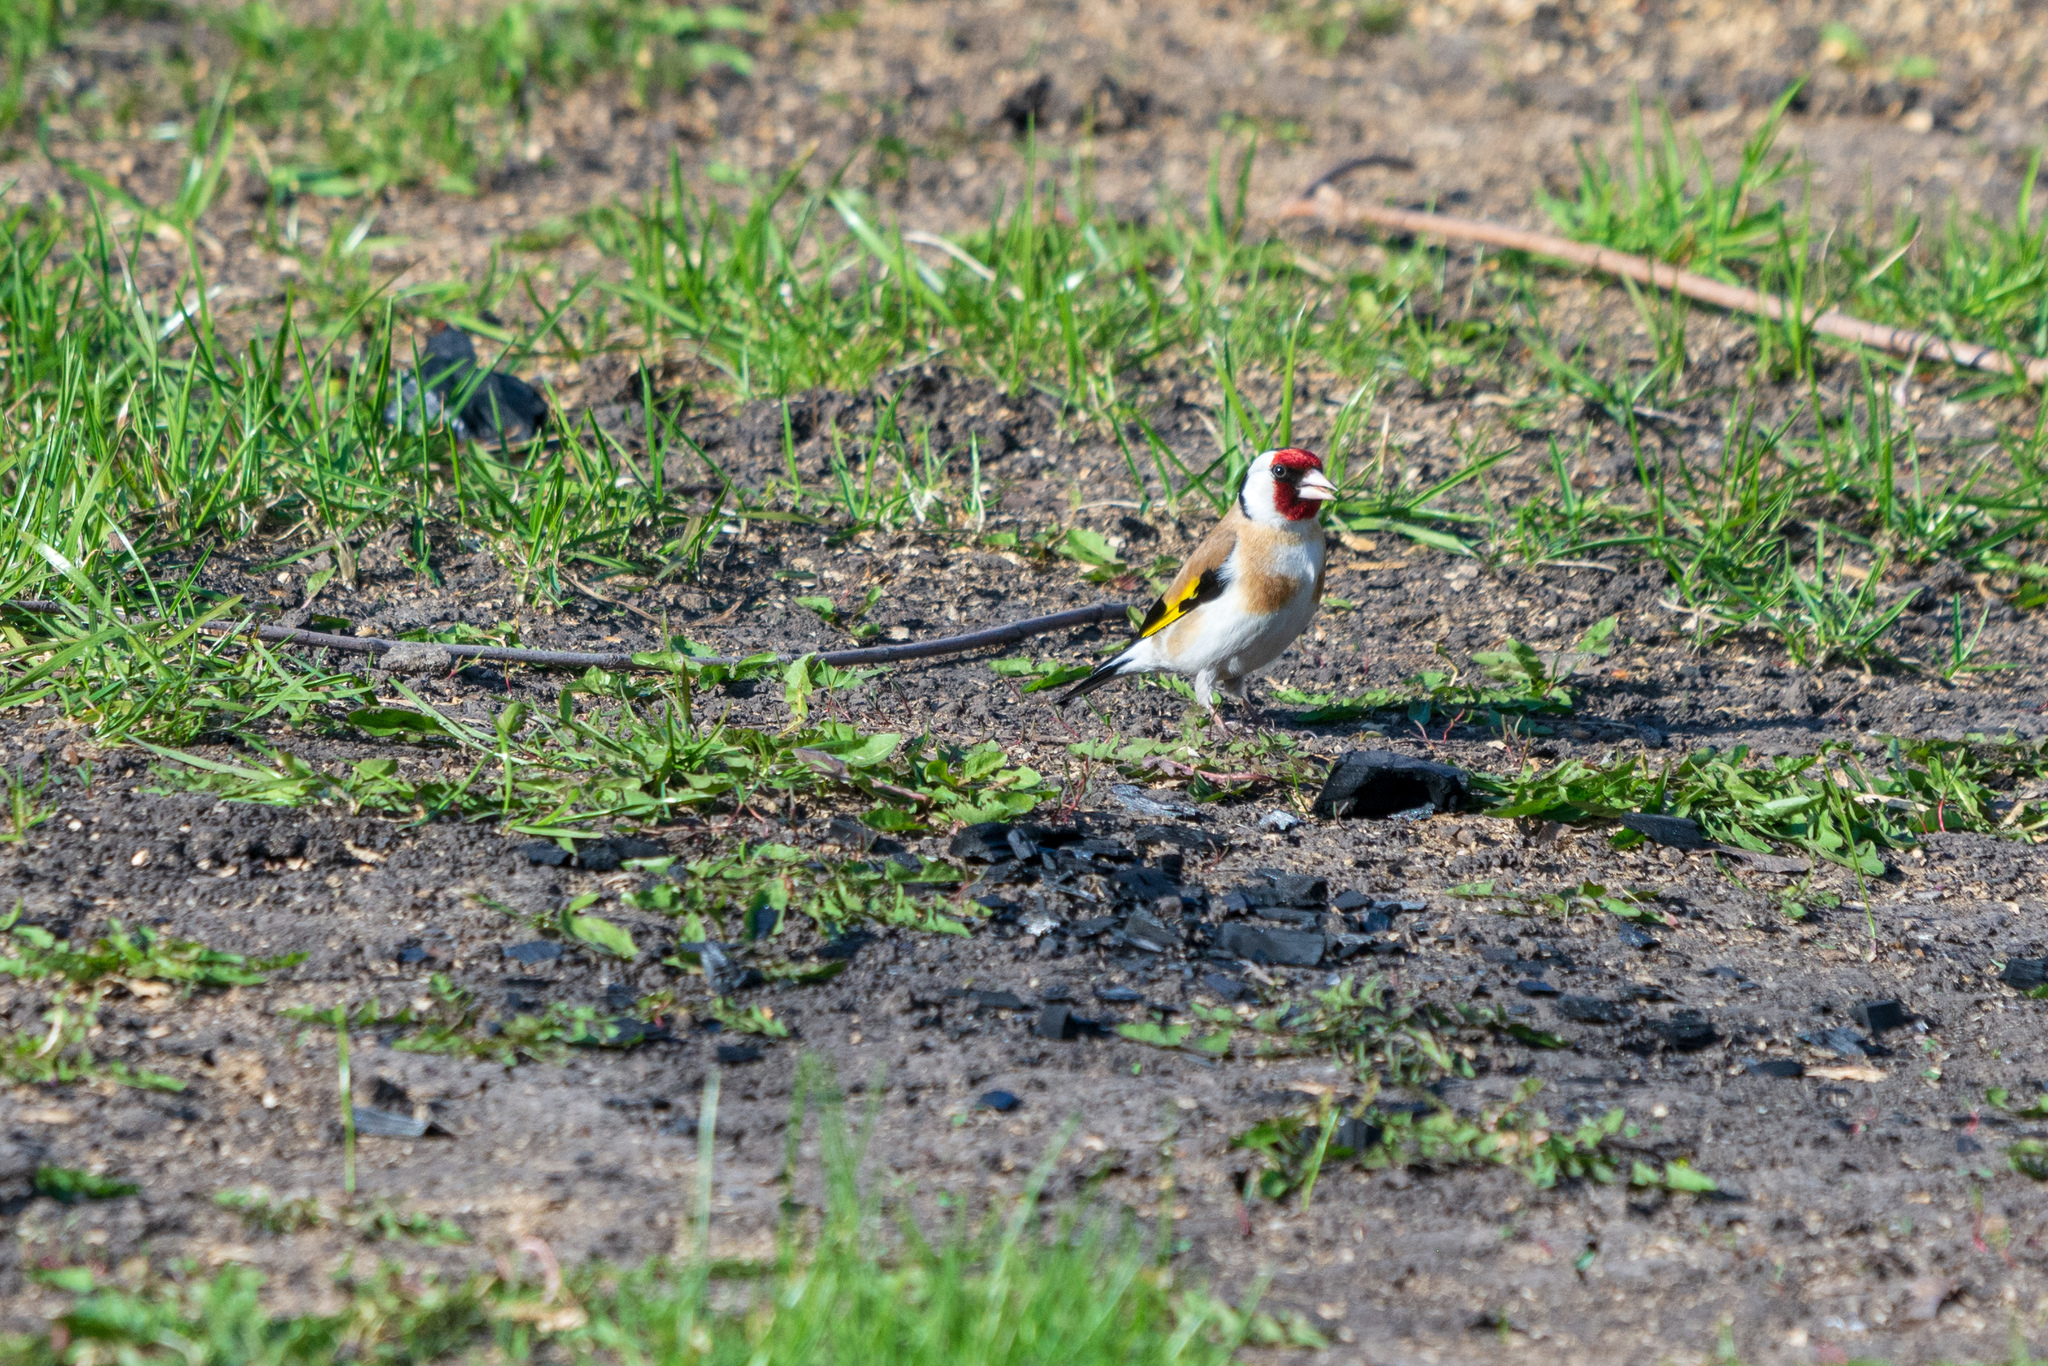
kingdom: Animalia
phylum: Chordata
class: Aves
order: Passeriformes
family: Fringillidae
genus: Carduelis
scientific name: Carduelis carduelis
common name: European goldfinch
